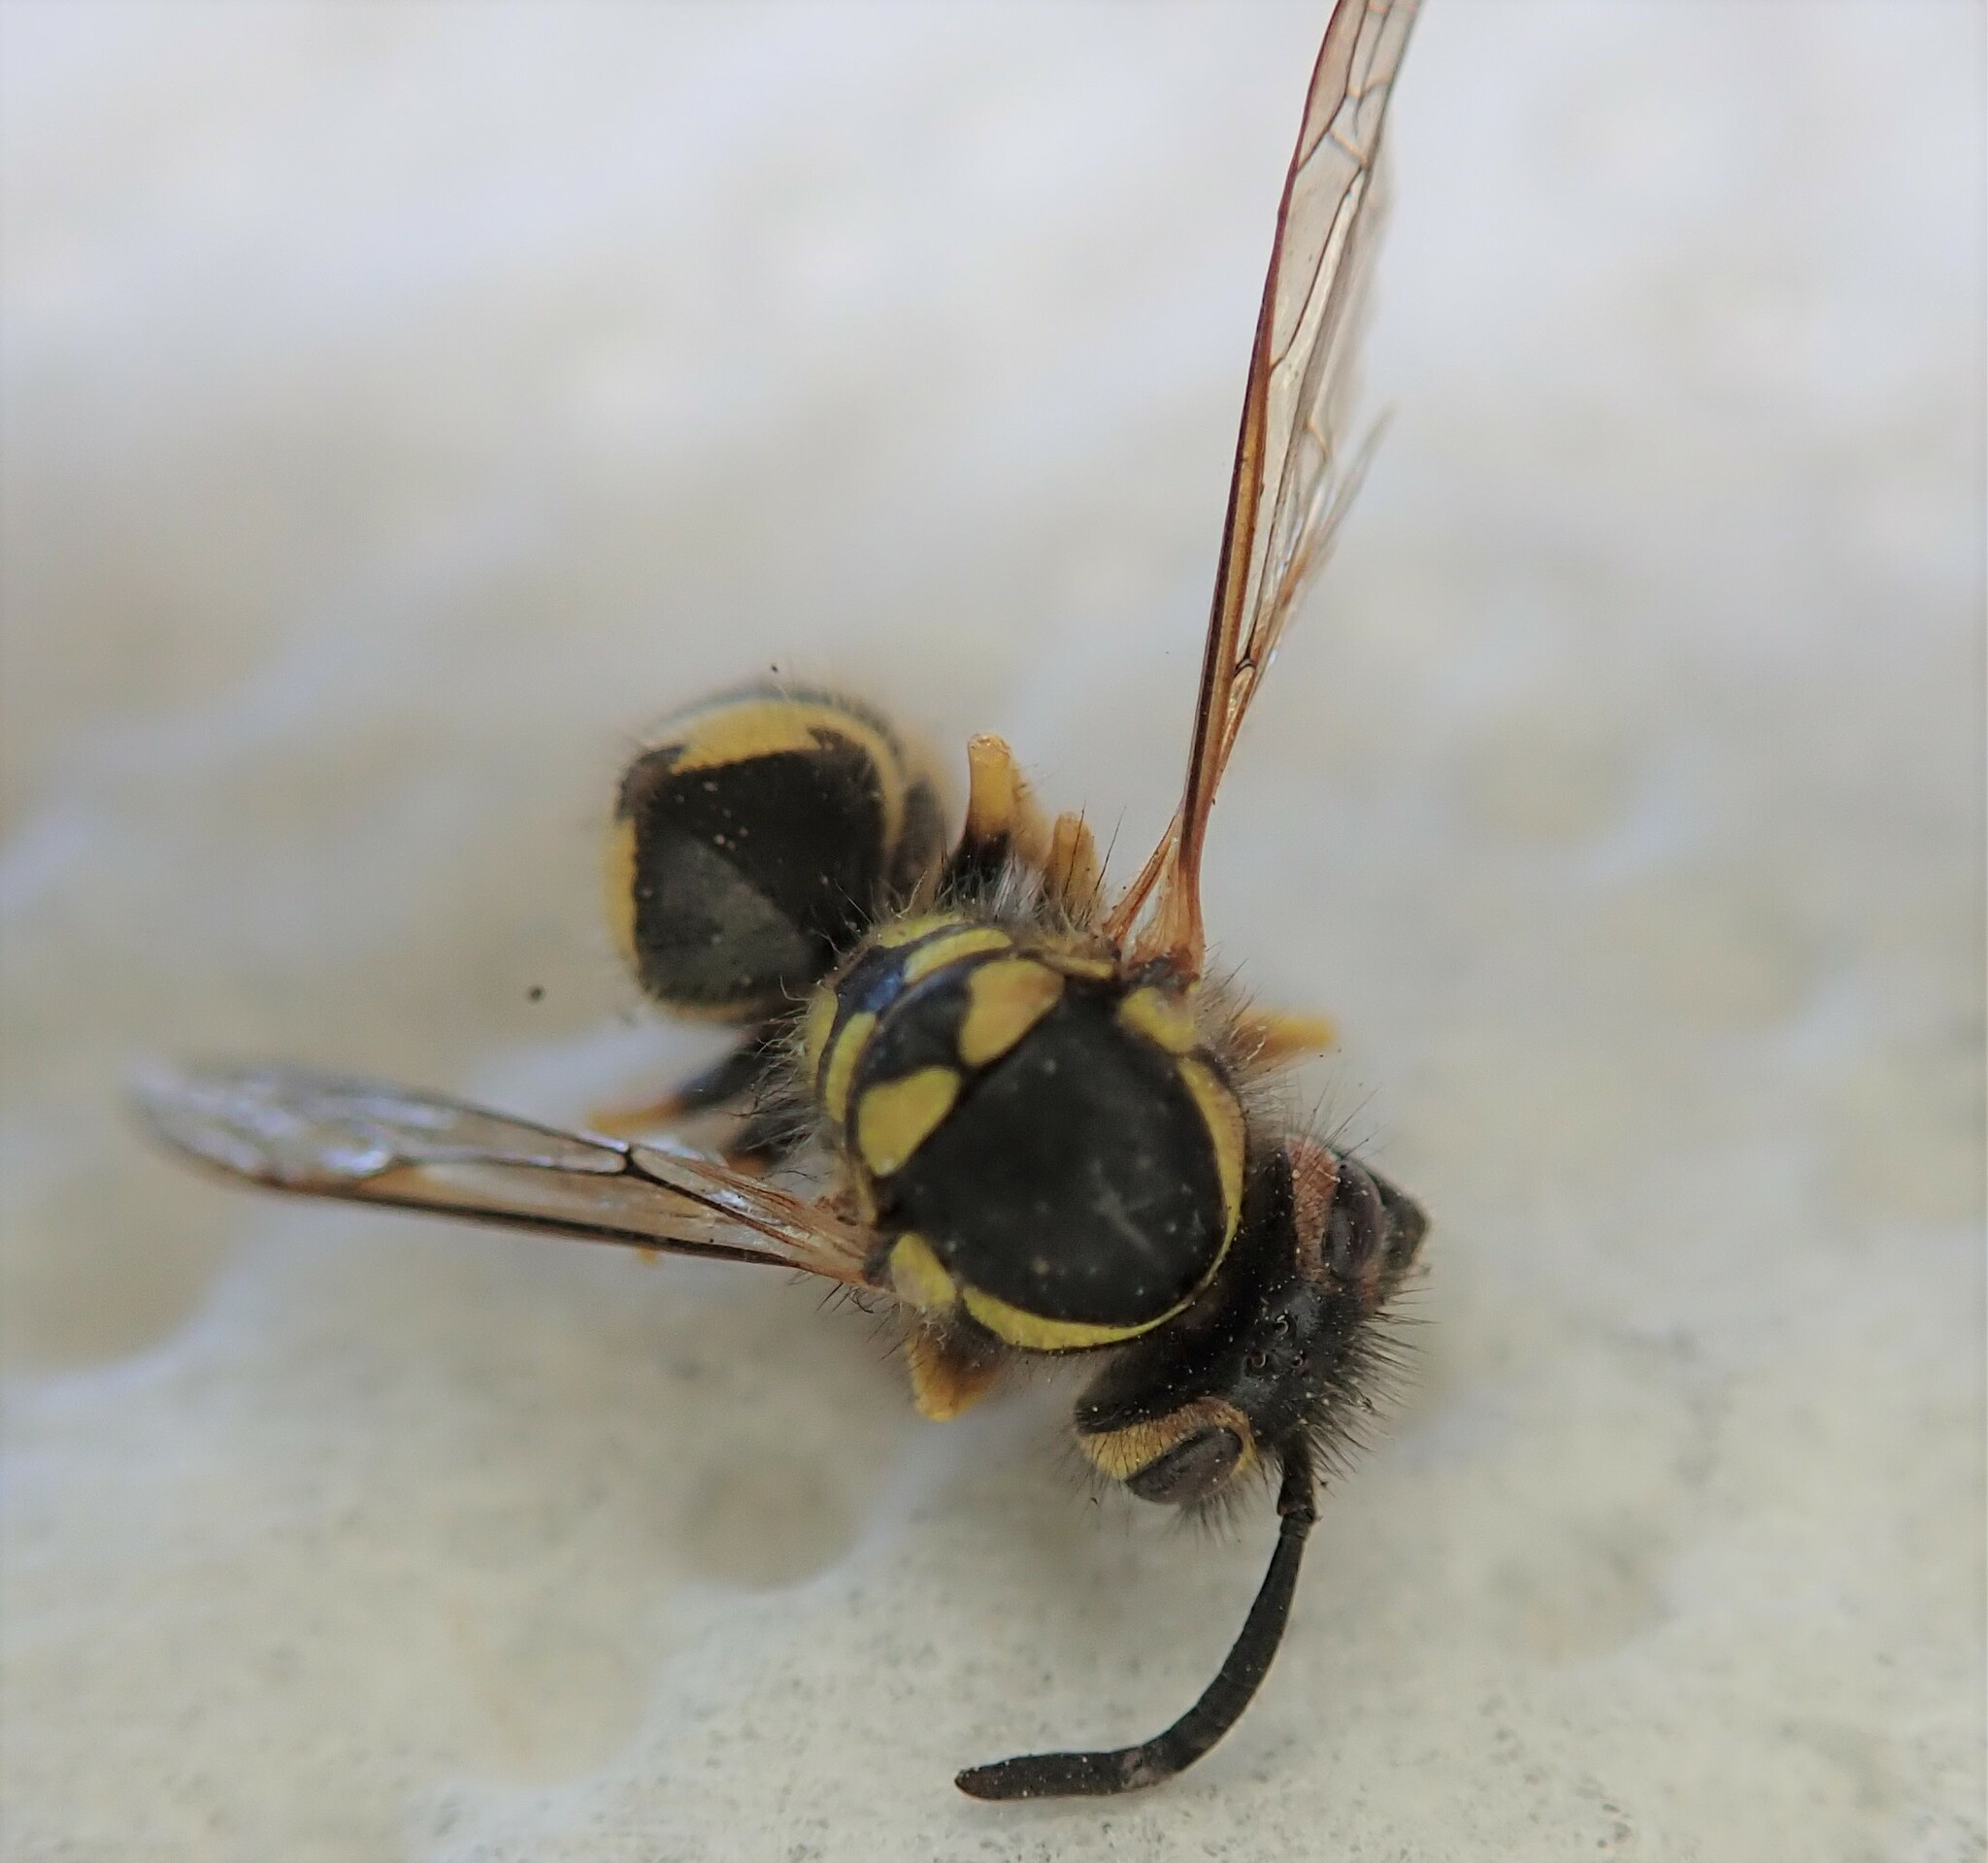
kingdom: Animalia
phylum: Arthropoda
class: Insecta
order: Hymenoptera
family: Vespidae
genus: Vespula
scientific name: Vespula pensylvanica
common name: Western yellowjacket
